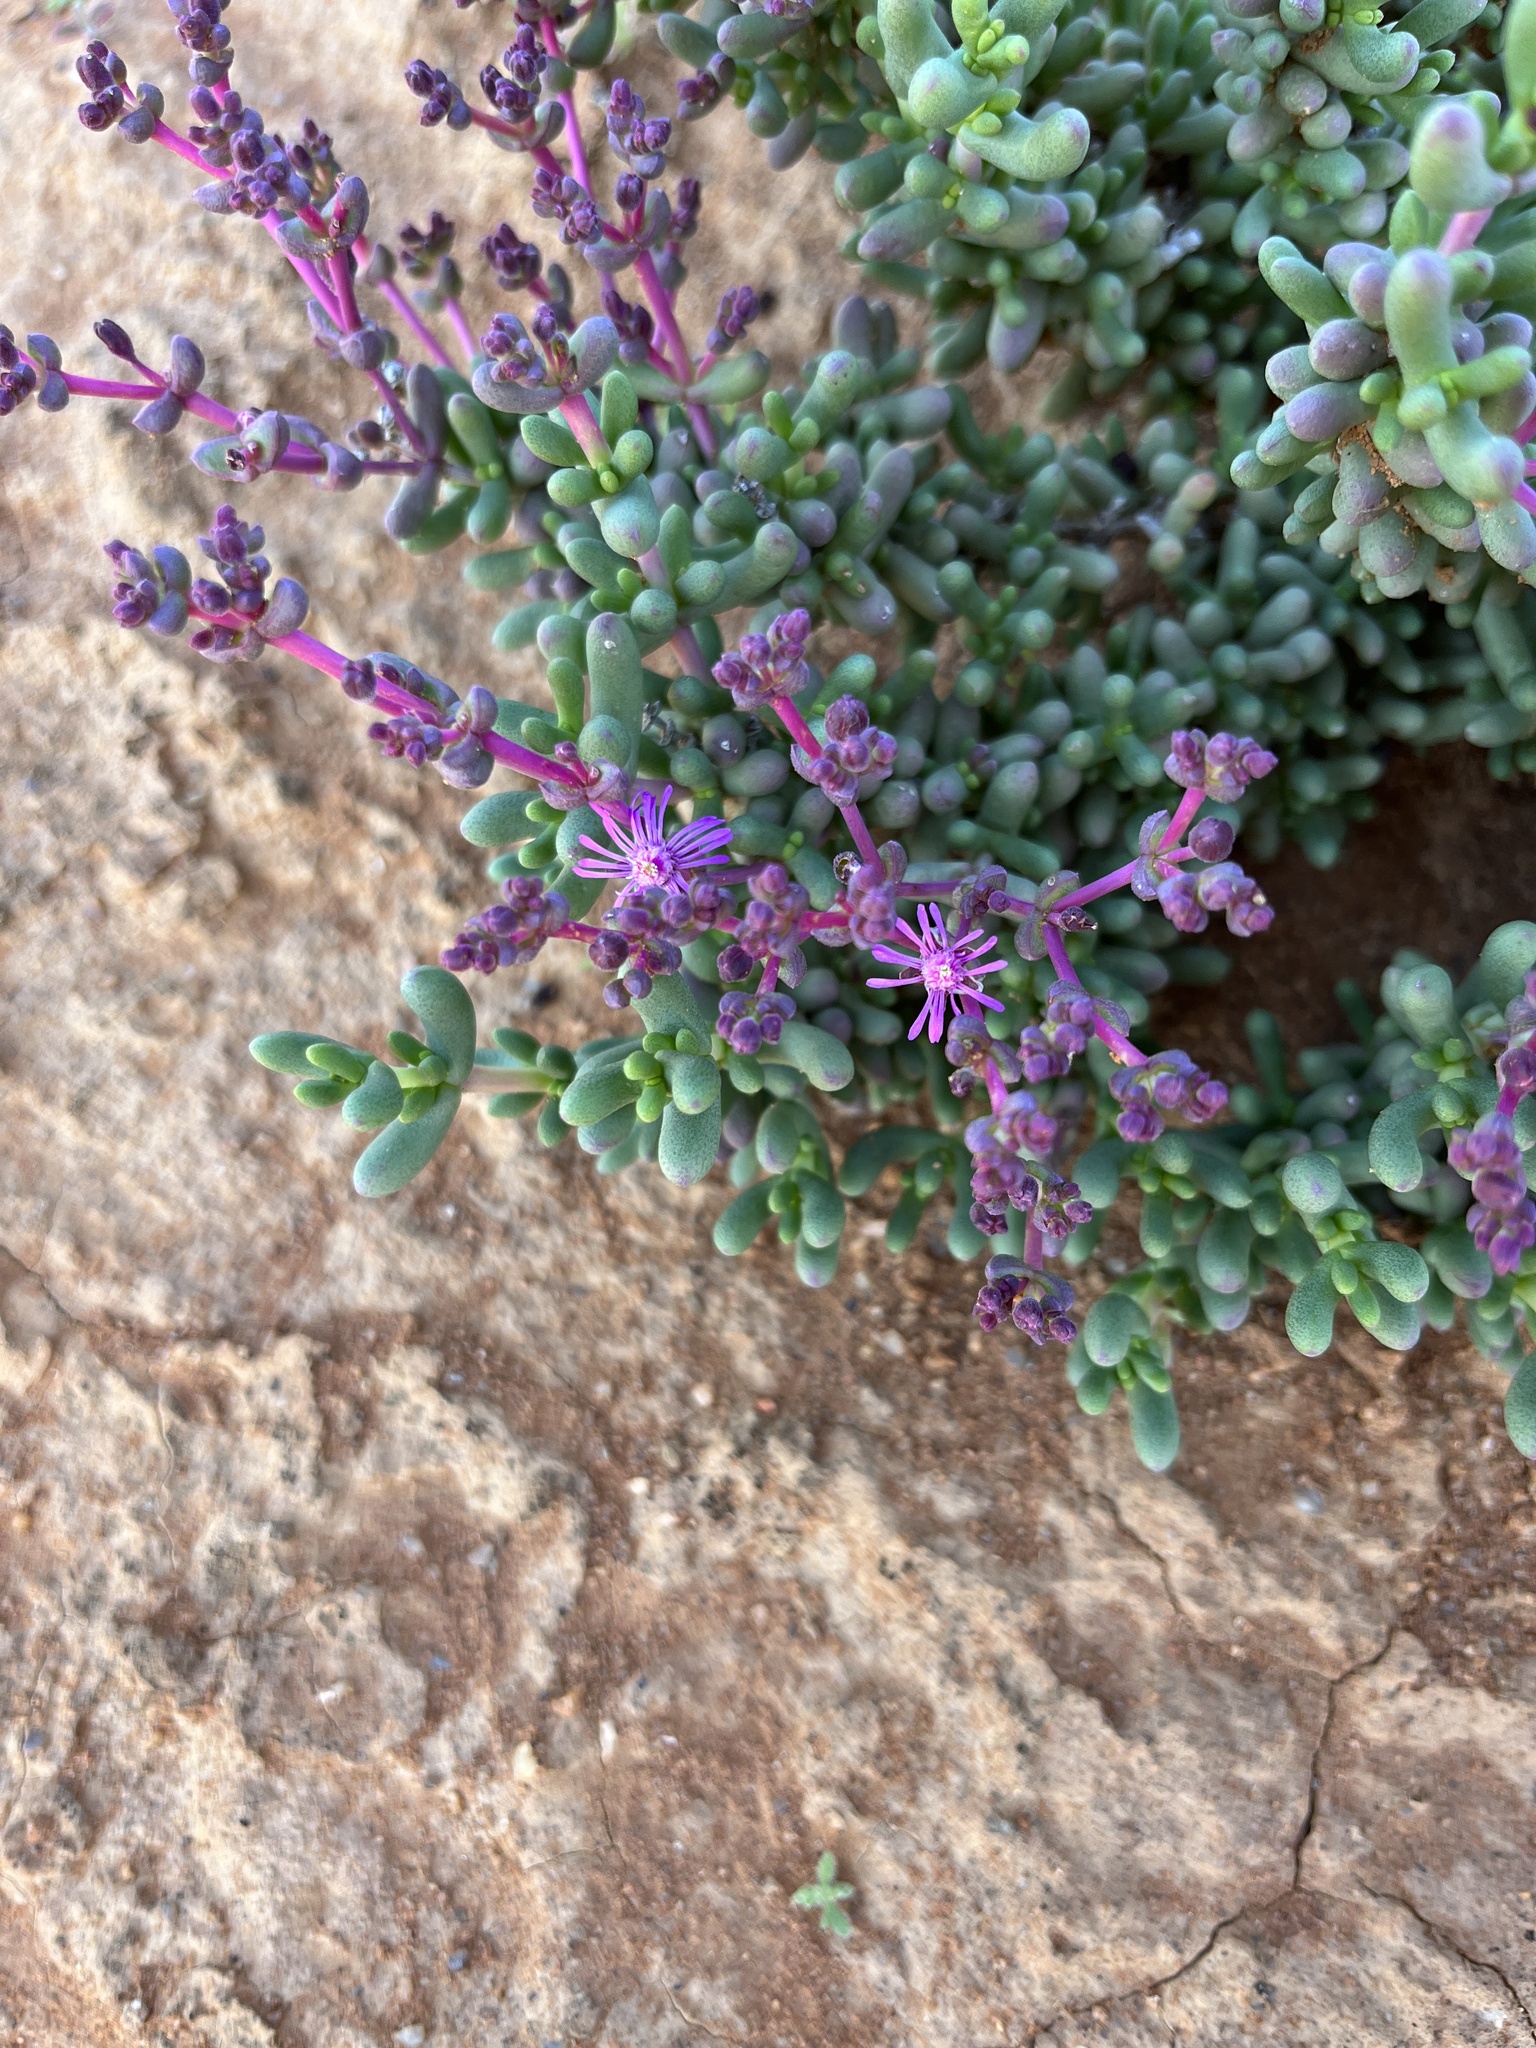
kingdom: Plantae
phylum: Tracheophyta
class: Magnoliopsida
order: Caryophyllales
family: Aizoaceae
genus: Eberlanzia
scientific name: Eberlanzia dichotoma
